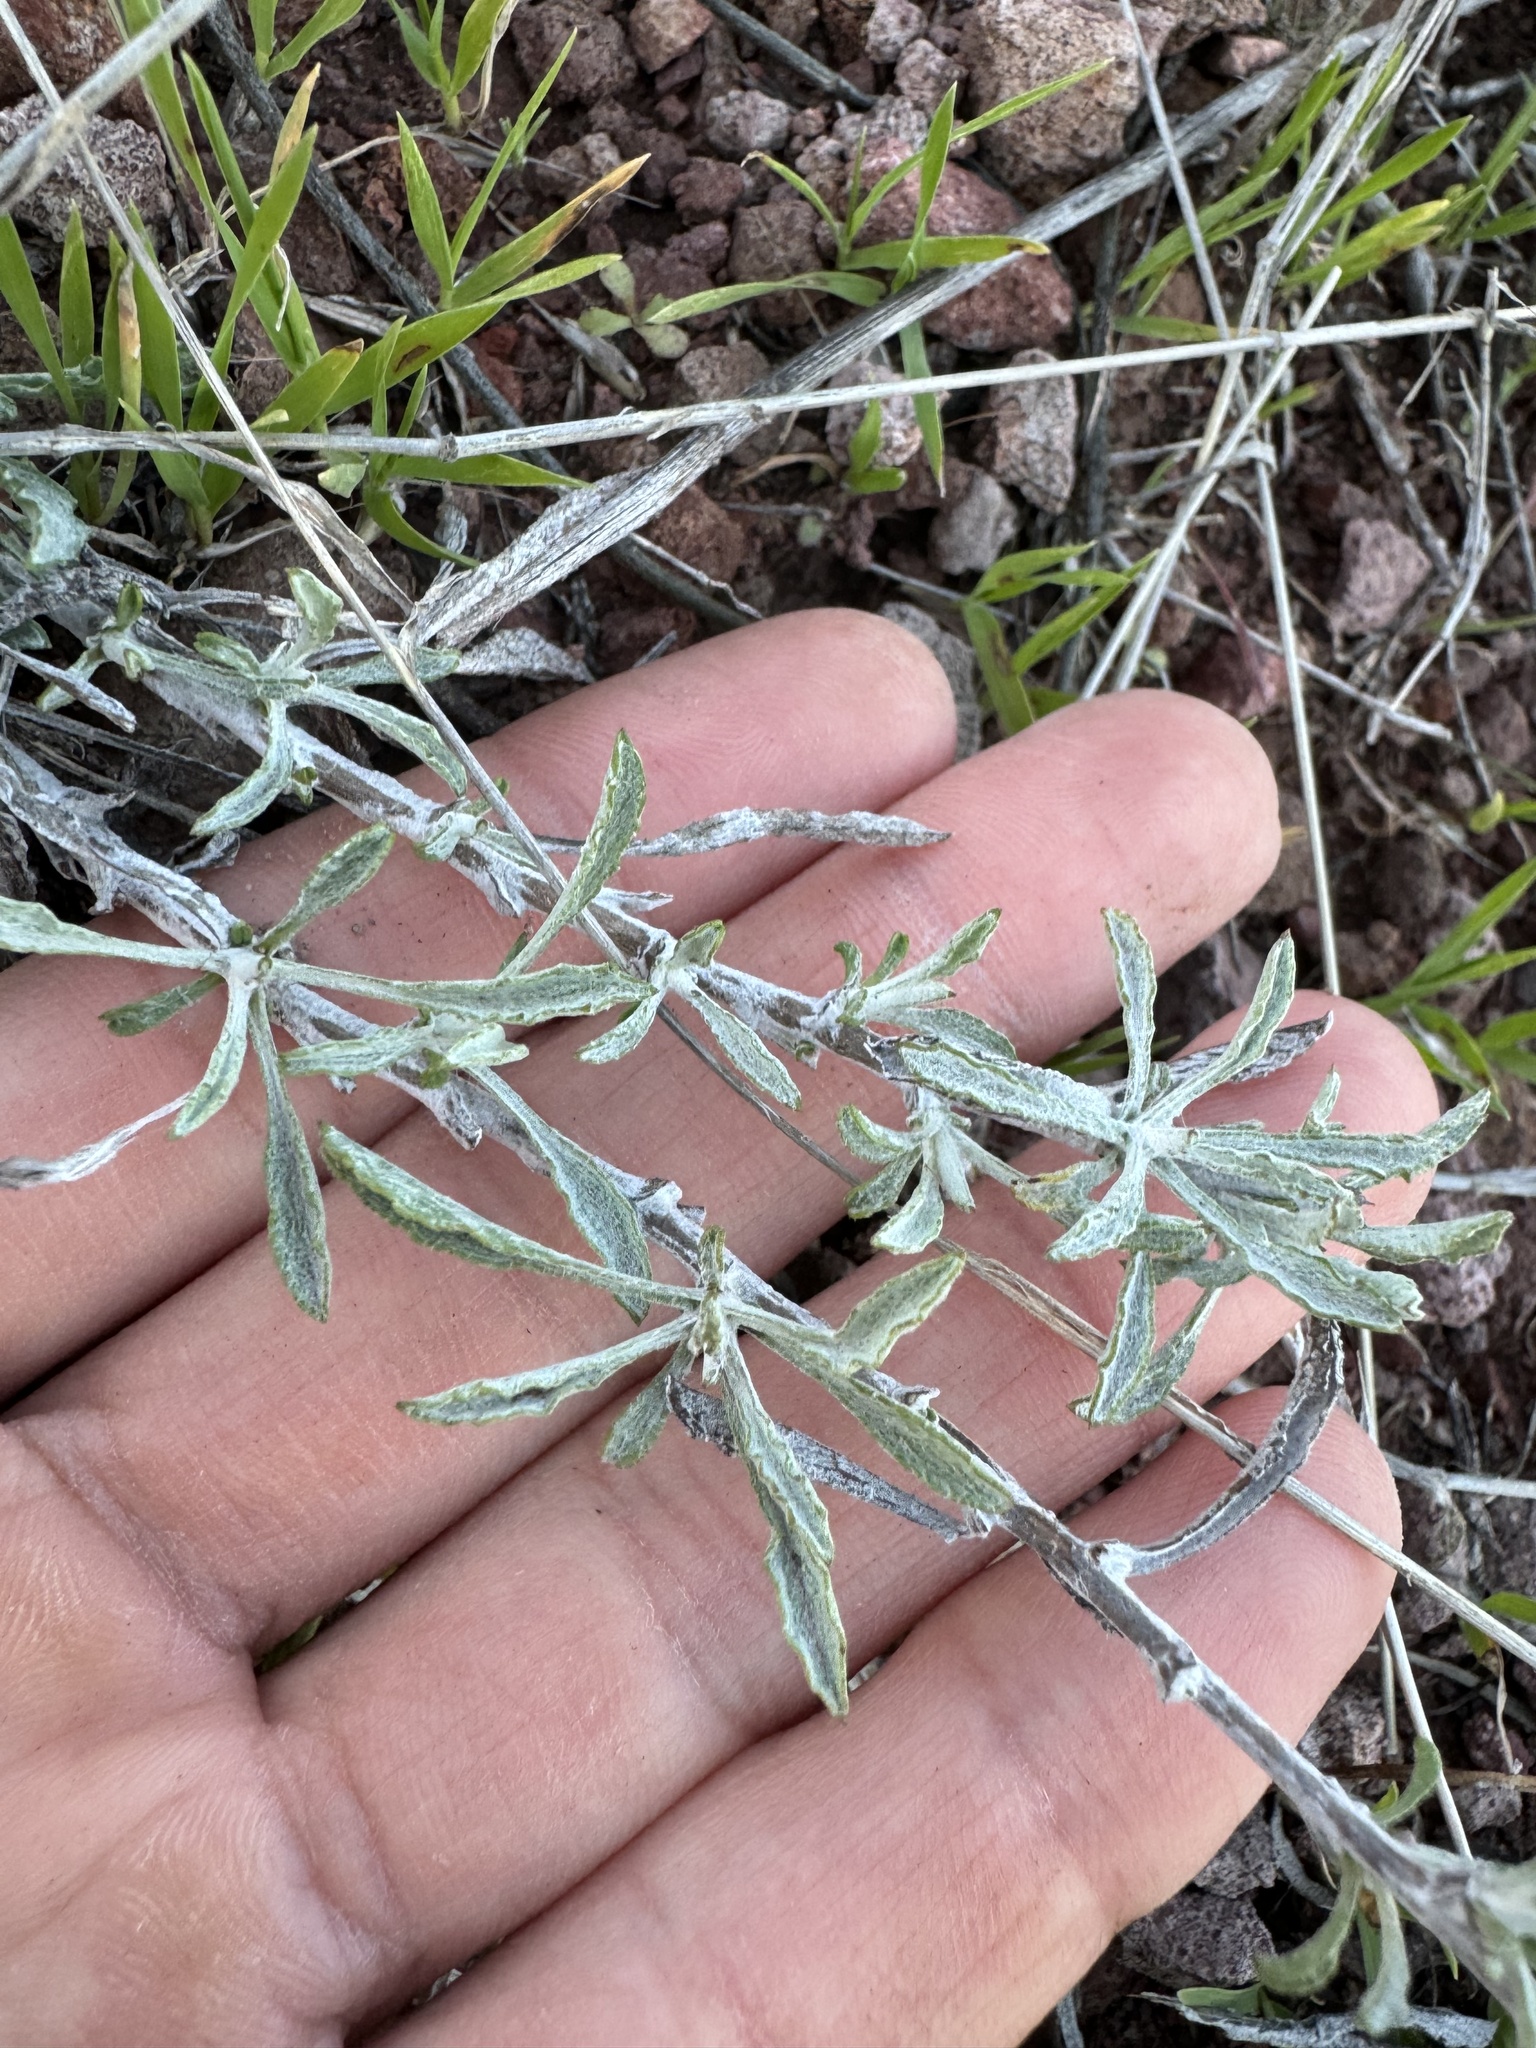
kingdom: Plantae
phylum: Tracheophyta
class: Magnoliopsida
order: Asterales
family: Asteraceae
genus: Corethrogyne
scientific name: Corethrogyne filaginifolia
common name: Sand-aster
